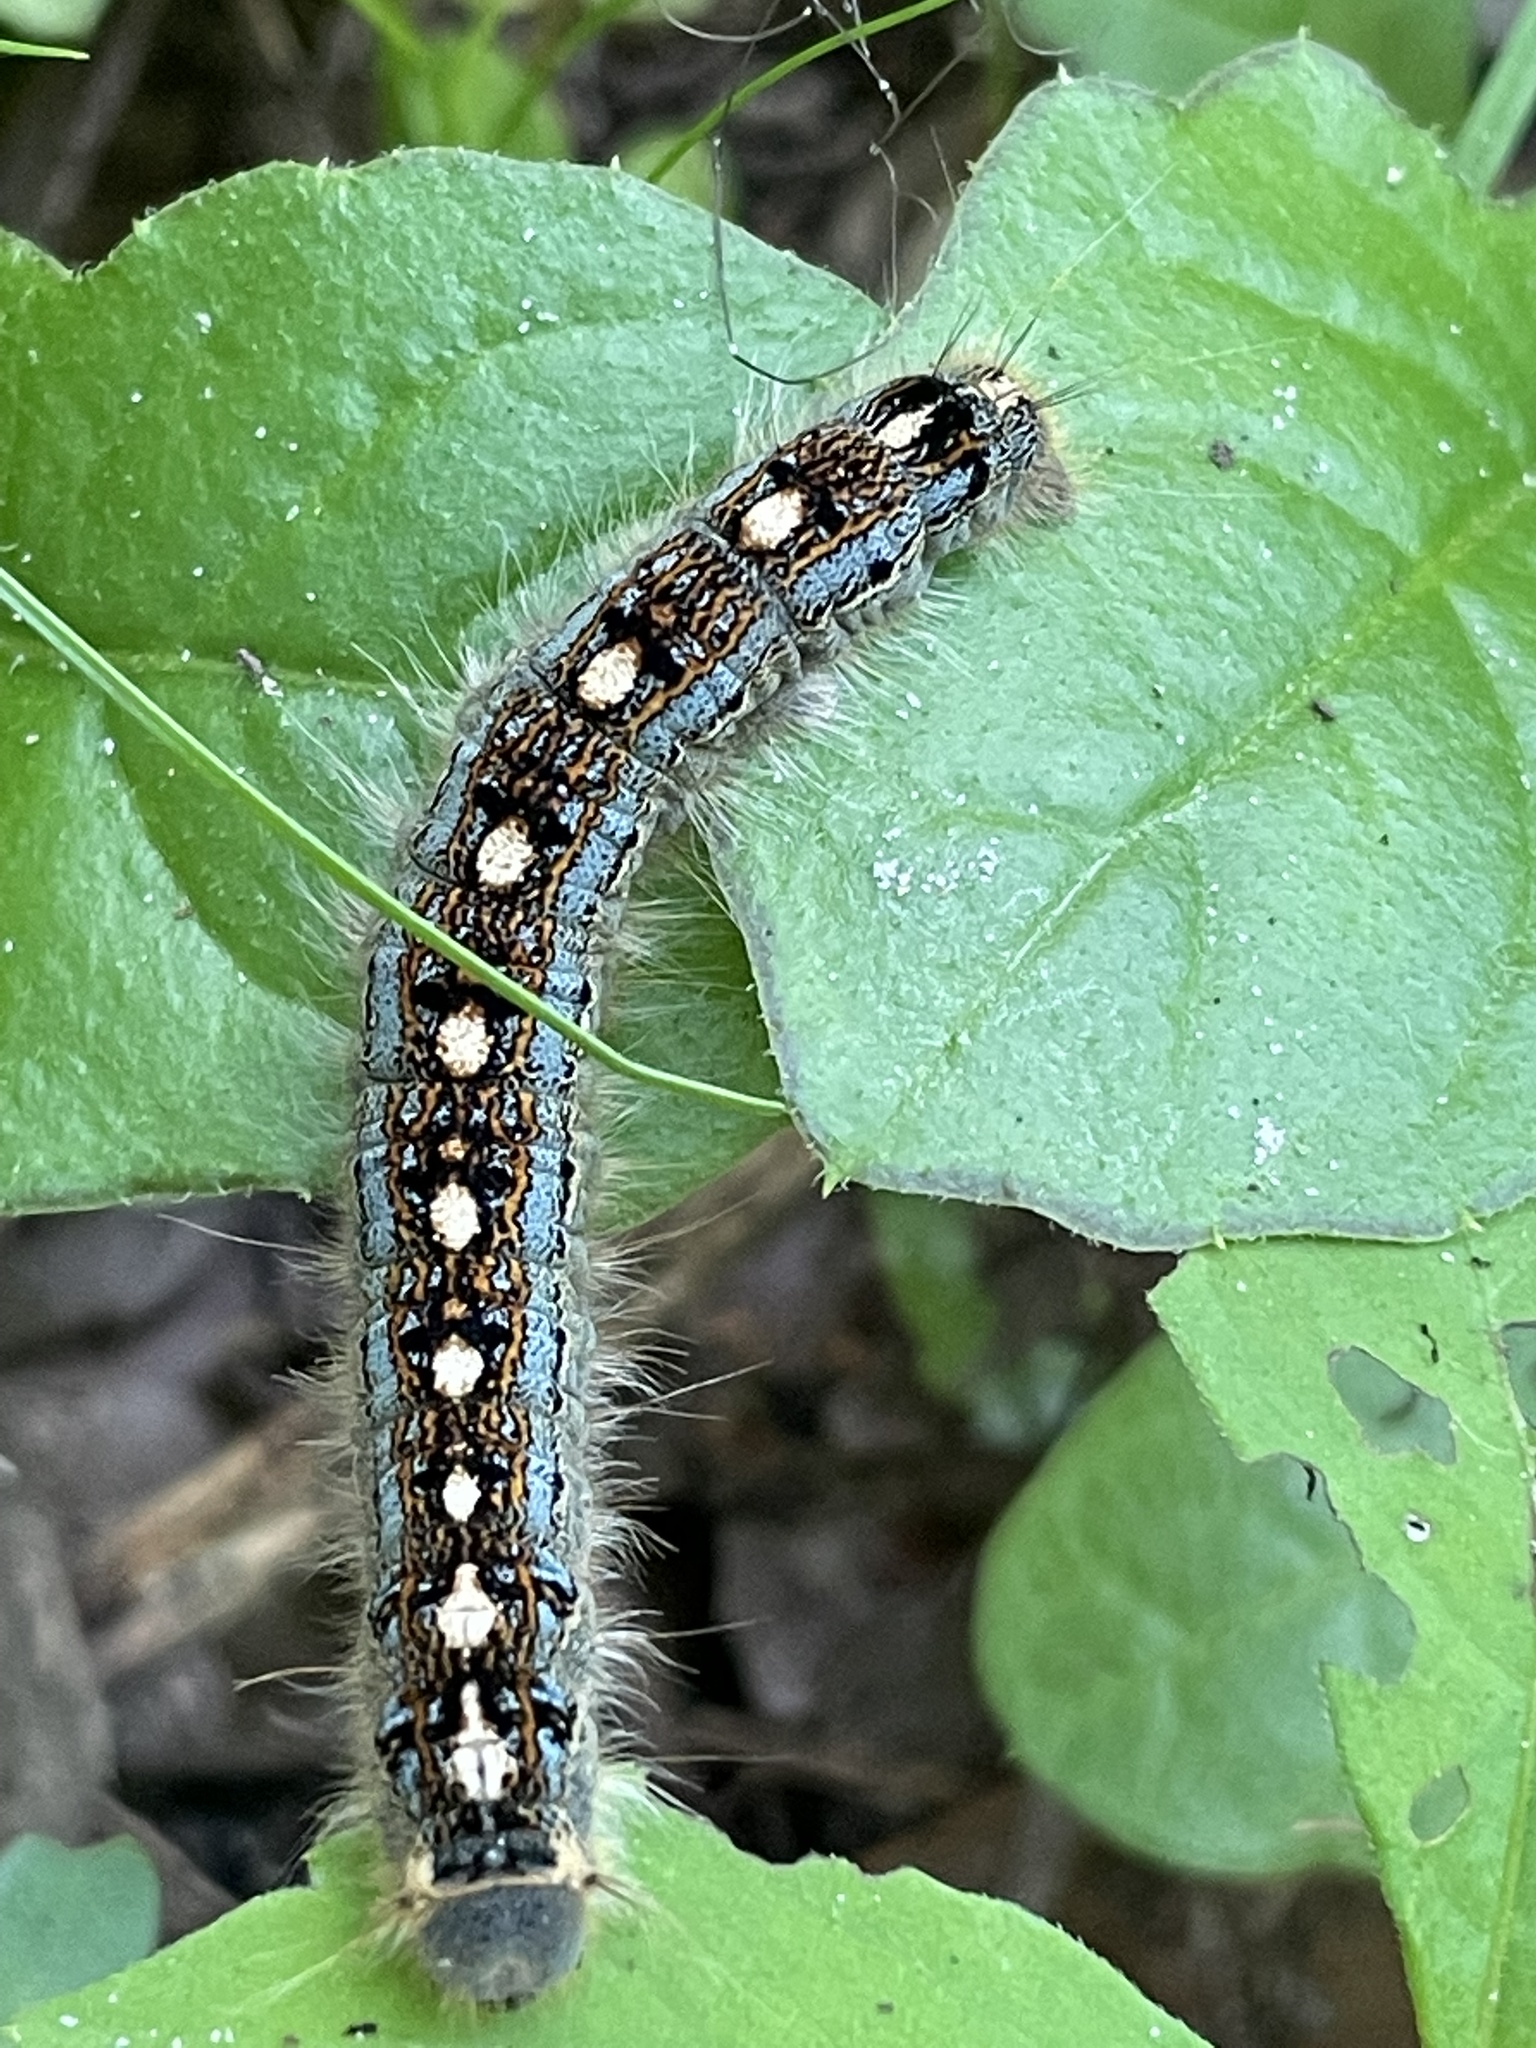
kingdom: Animalia
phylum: Arthropoda
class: Insecta
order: Lepidoptera
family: Lasiocampidae
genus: Malacosoma
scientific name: Malacosoma disstria
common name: Forest tent caterpillar
